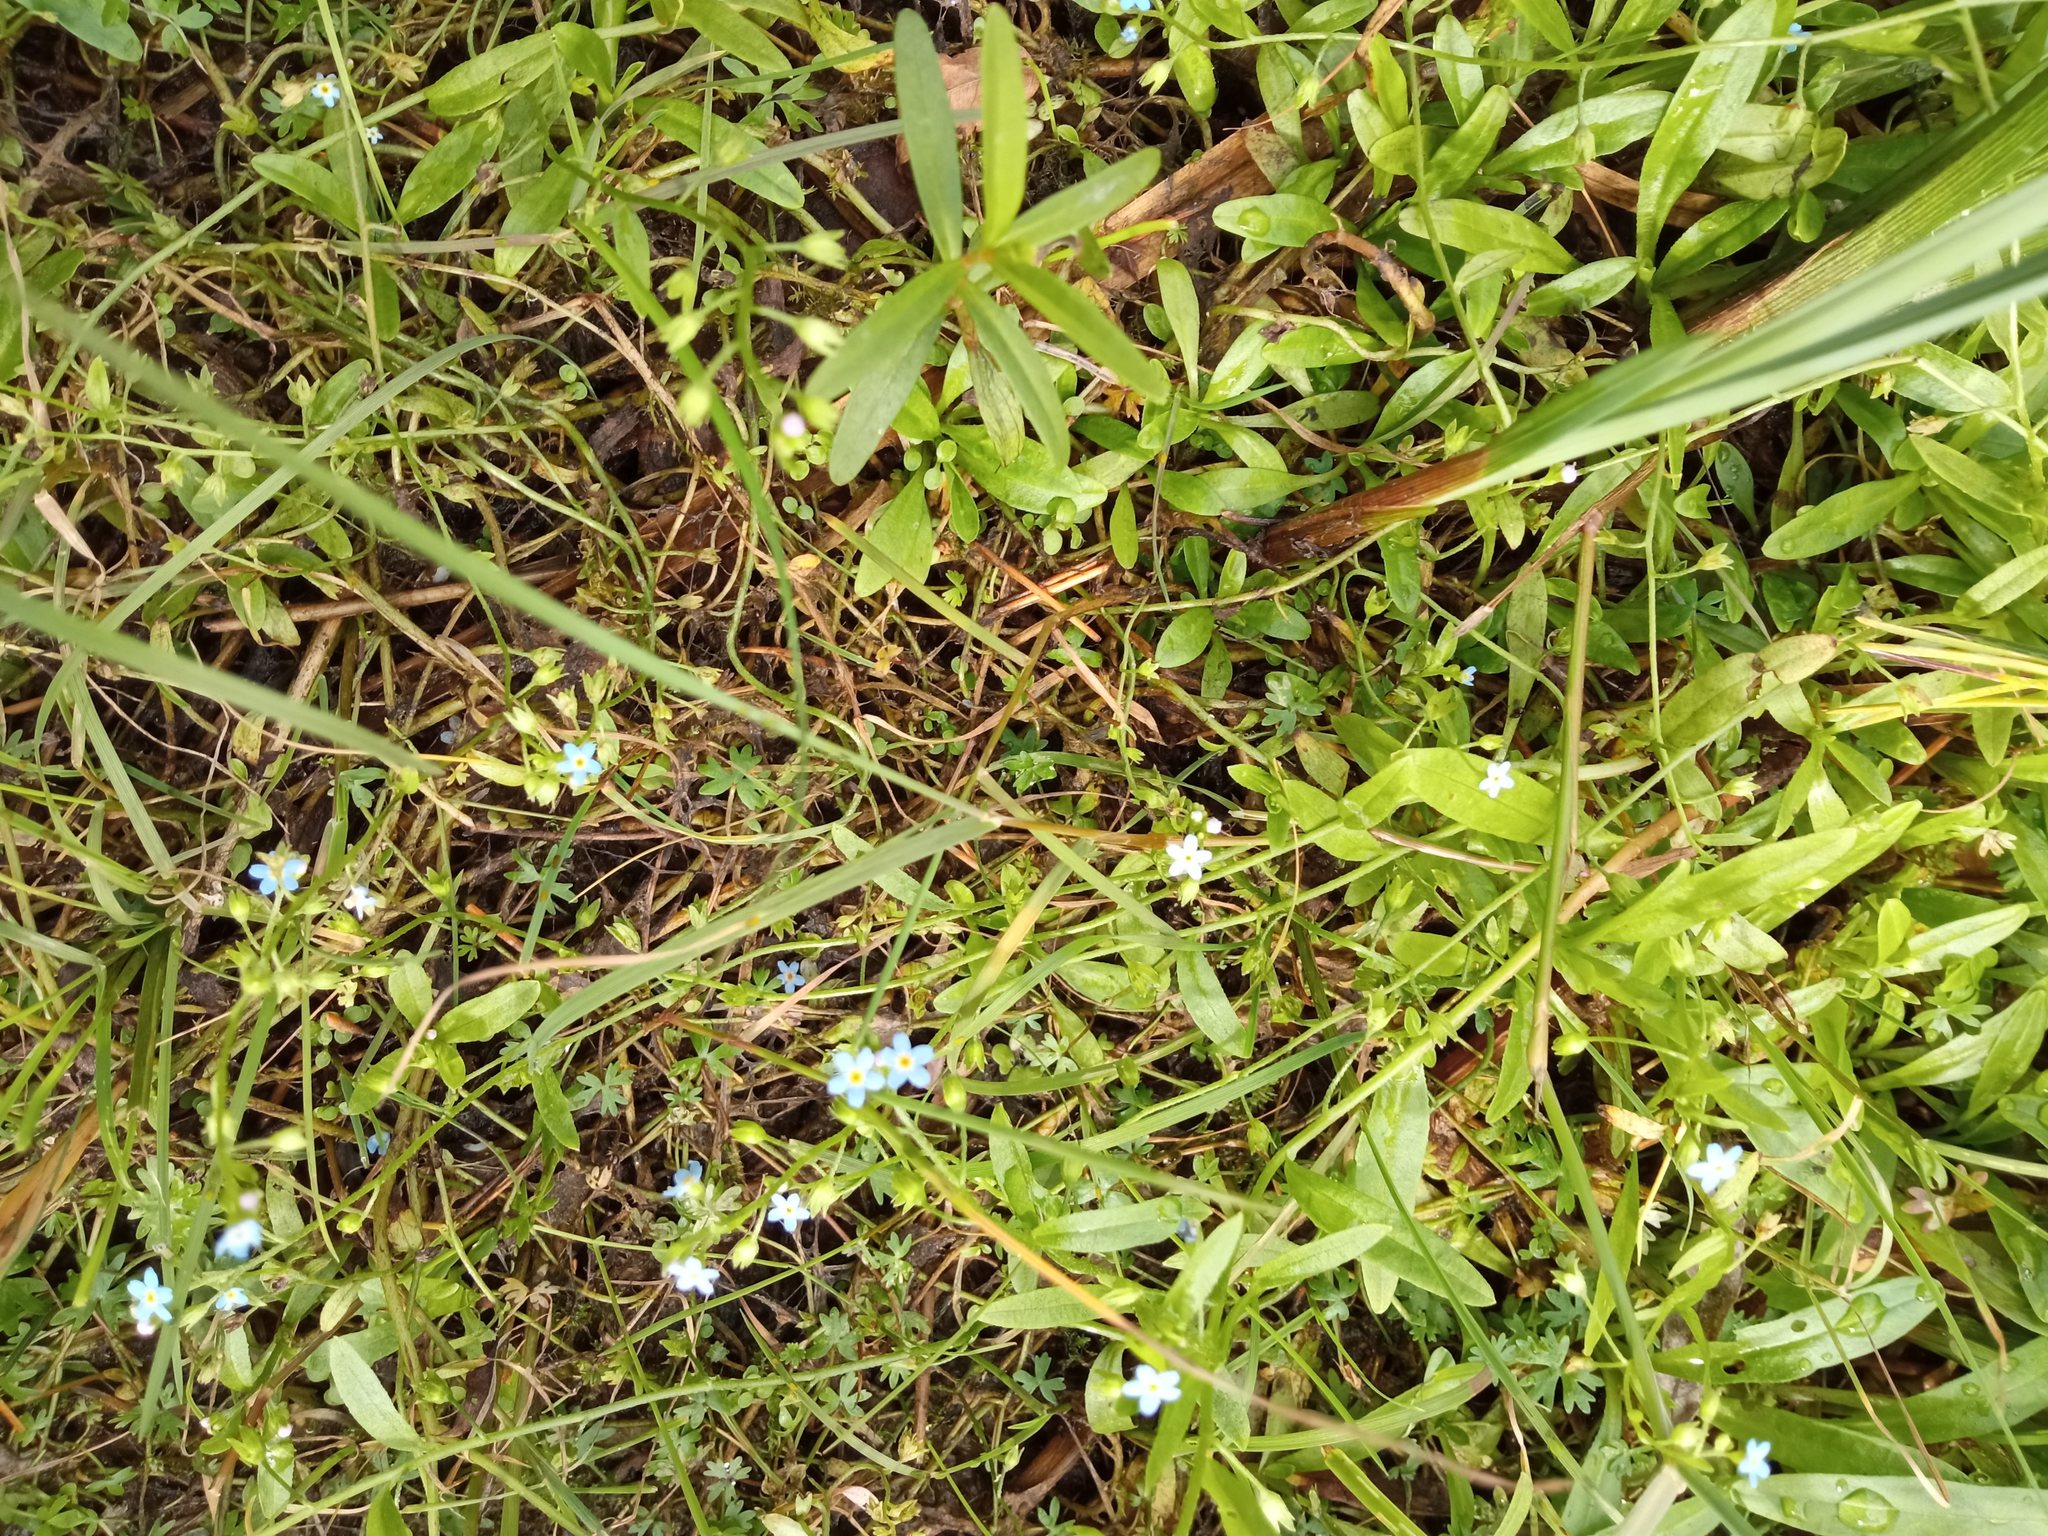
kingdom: Plantae
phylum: Tracheophyta
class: Magnoliopsida
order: Boraginales
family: Boraginaceae
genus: Myosotis
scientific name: Myosotis laxa
